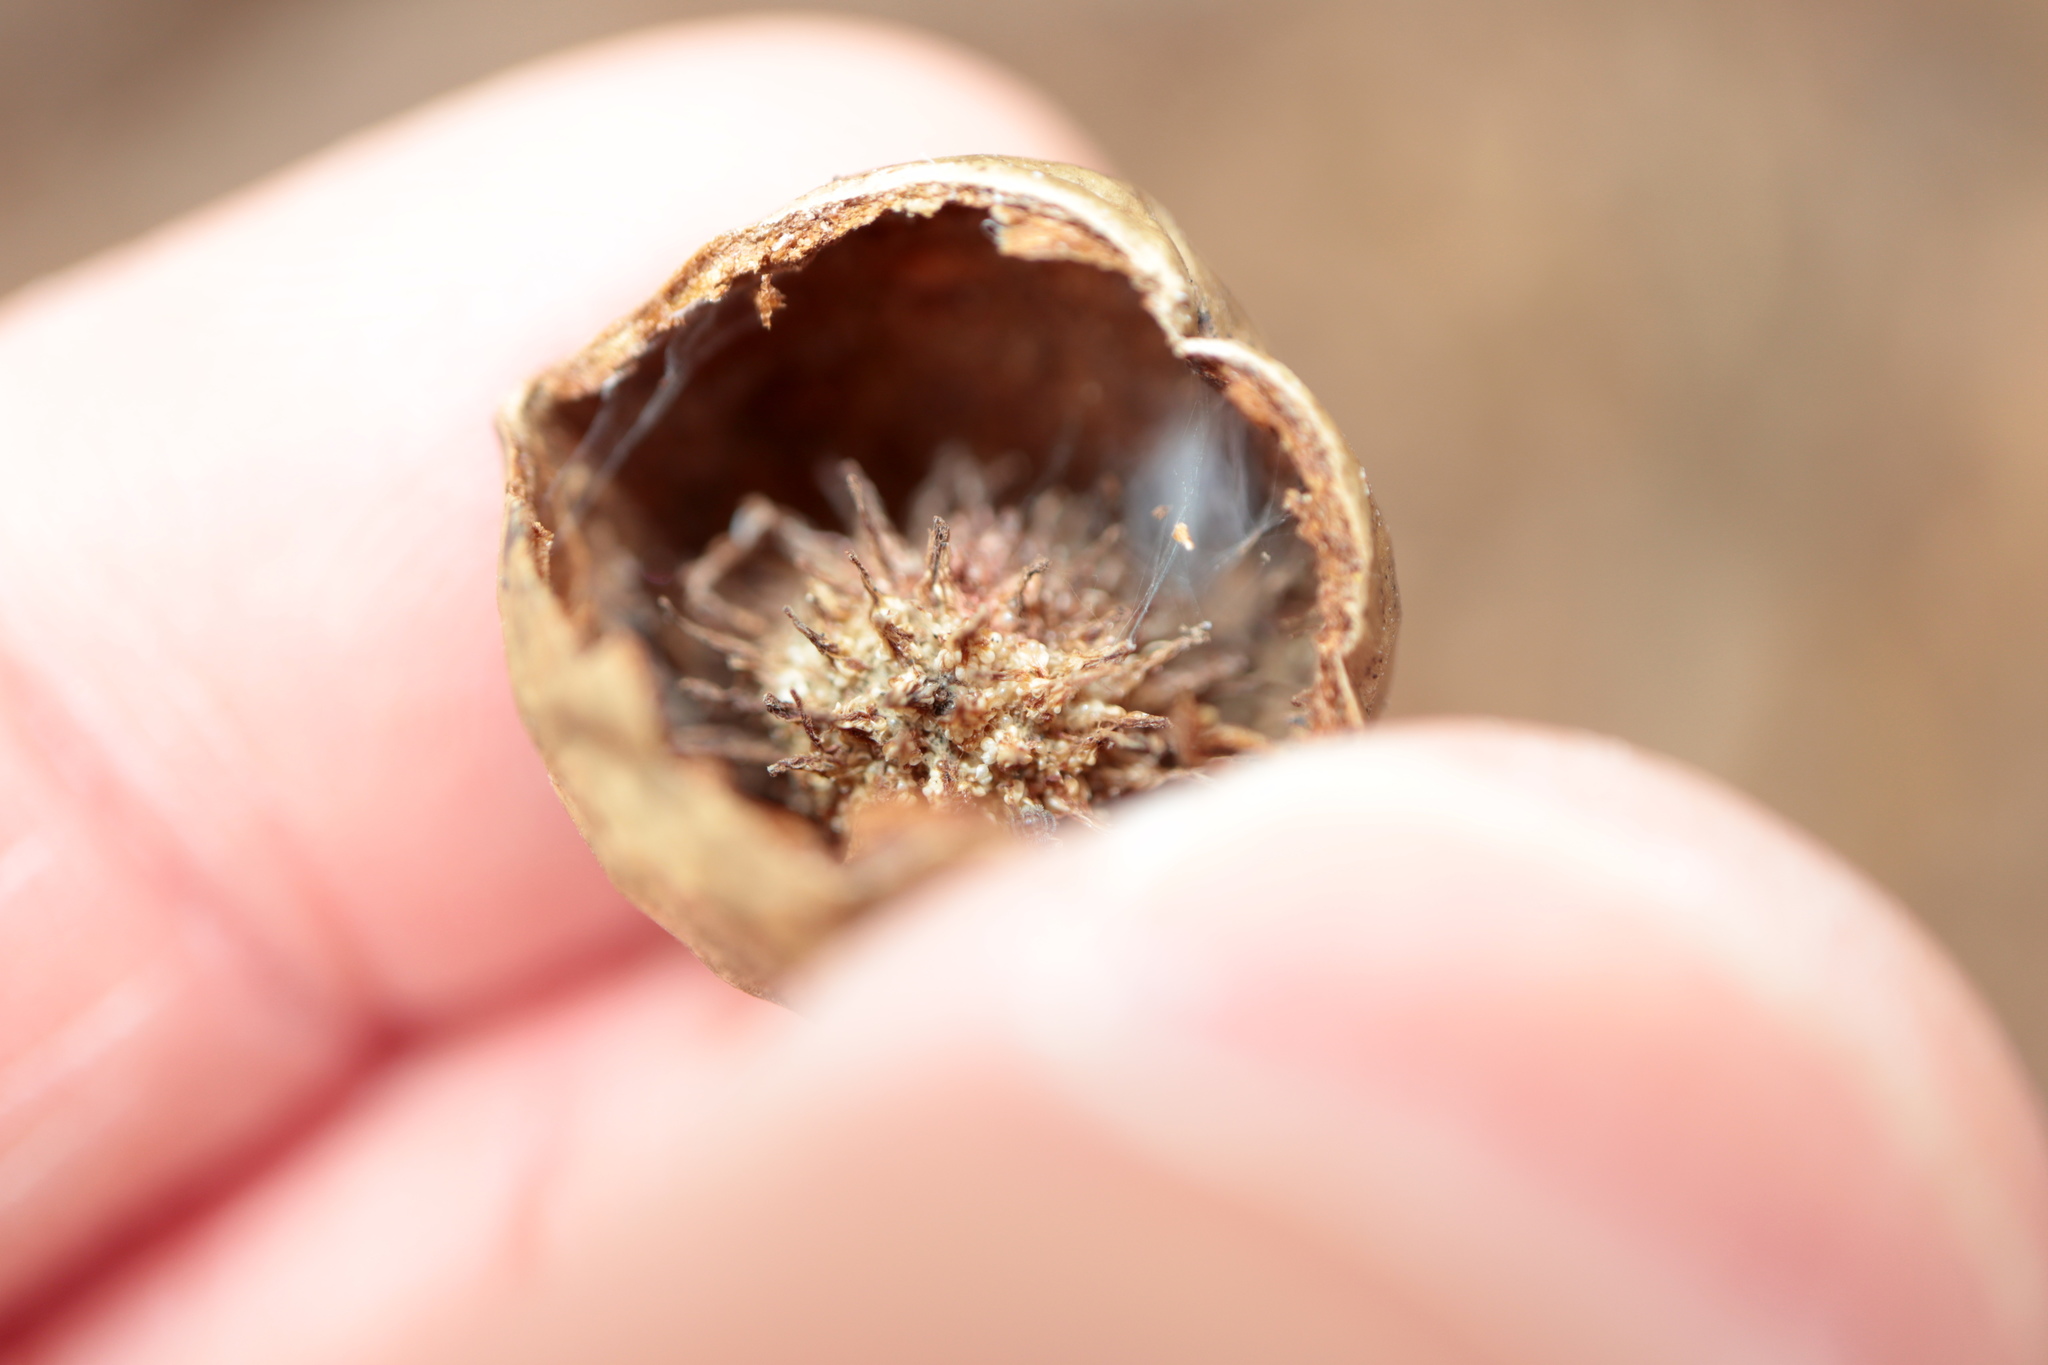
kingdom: Animalia
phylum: Arthropoda
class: Insecta
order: Hymenoptera
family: Cynipidae
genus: Amphibolips
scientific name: Amphibolips
